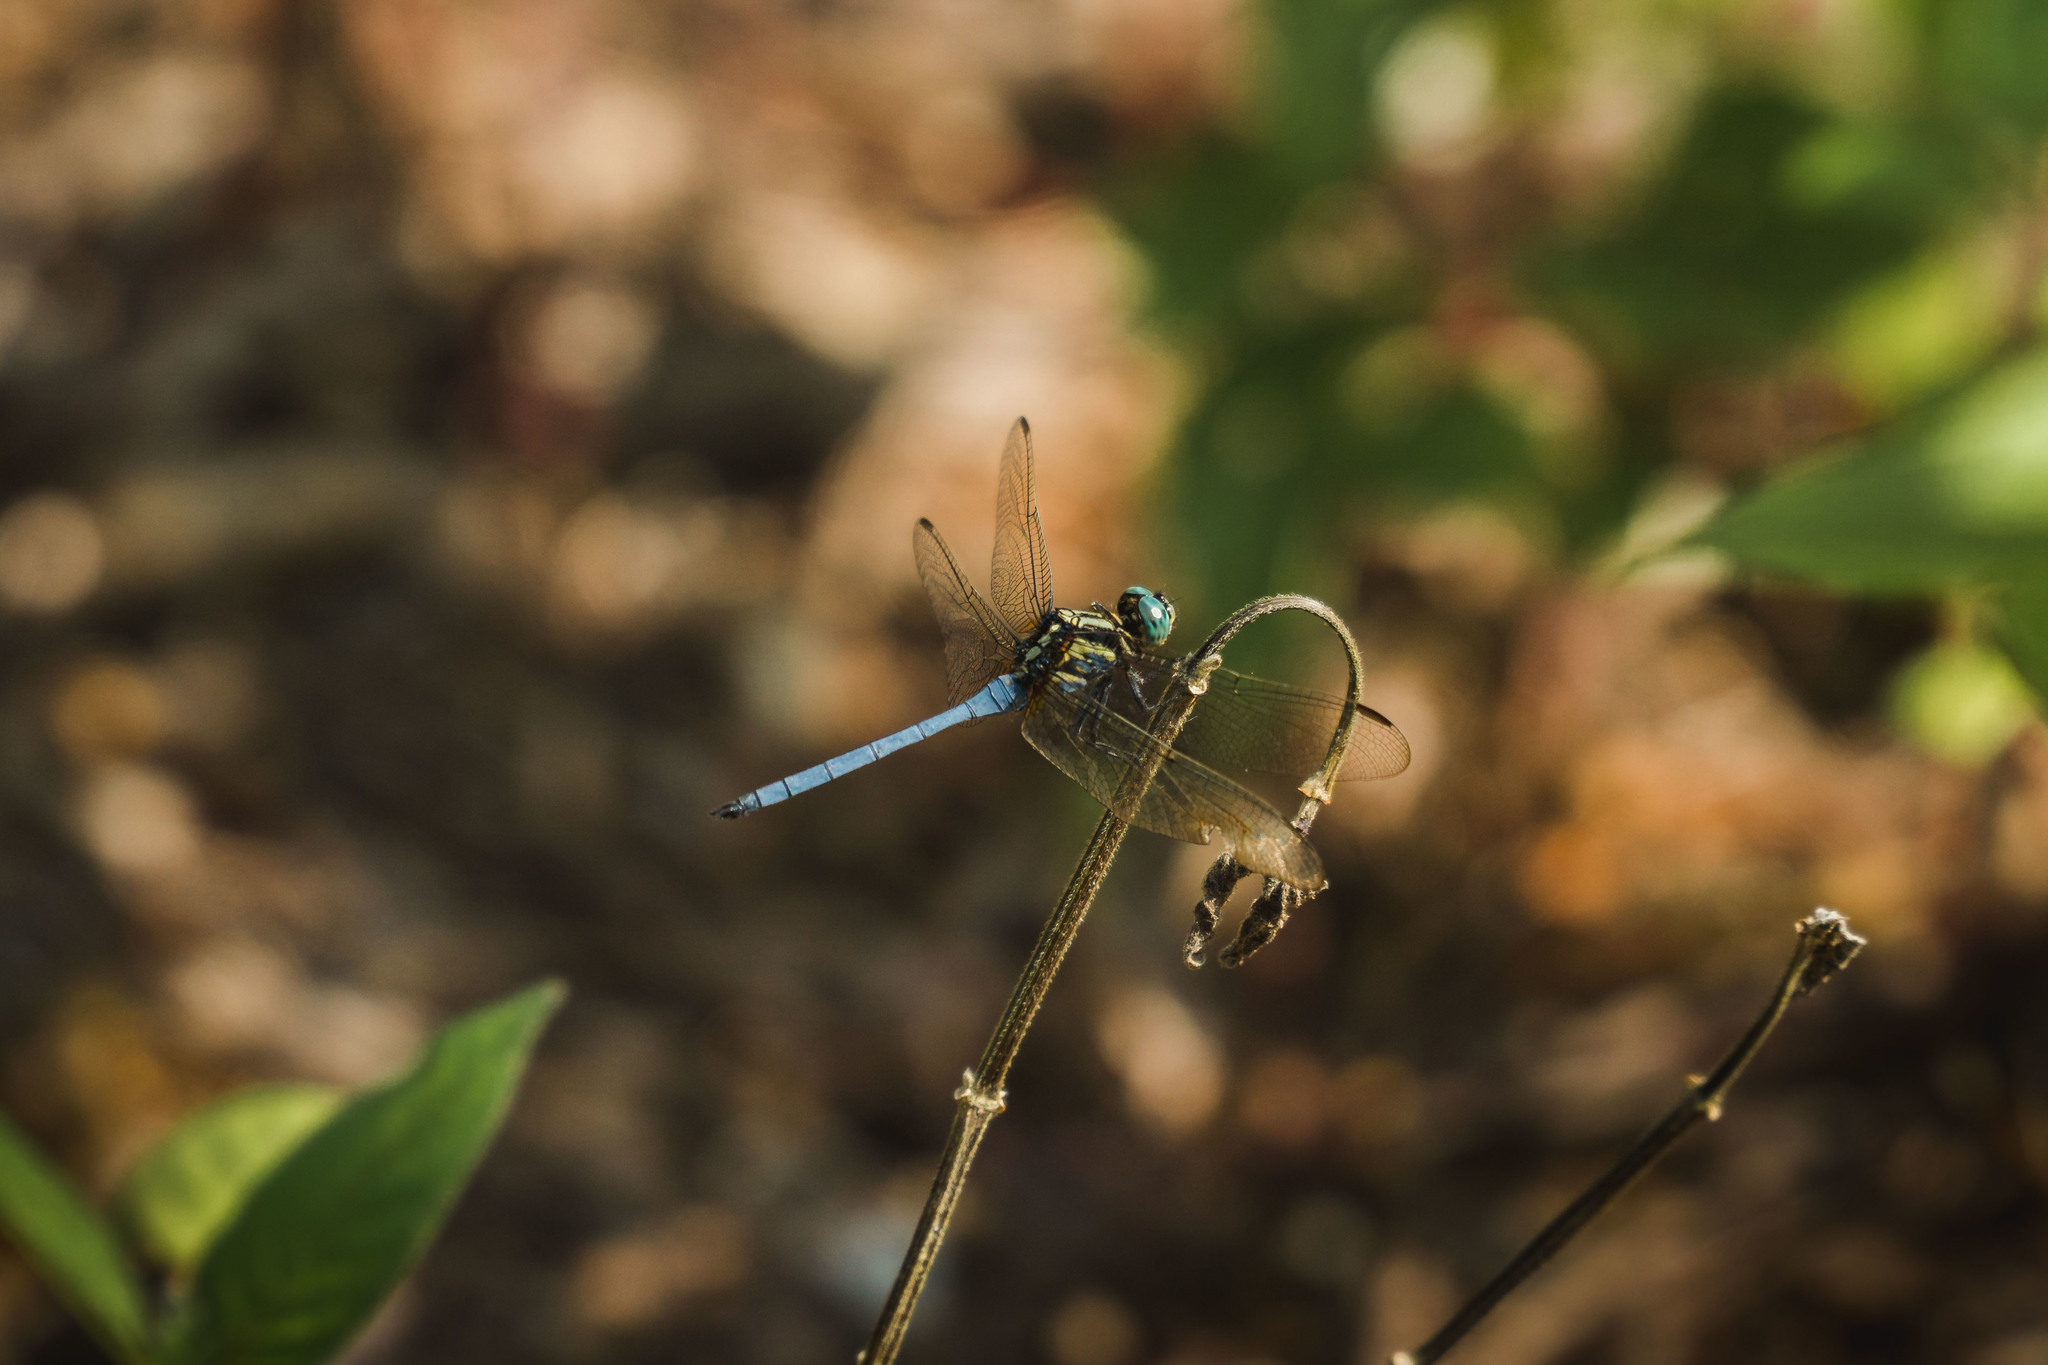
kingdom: Animalia
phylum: Arthropoda
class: Insecta
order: Odonata
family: Libellulidae
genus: Orthetrum
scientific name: Orthetrum luzonicum
